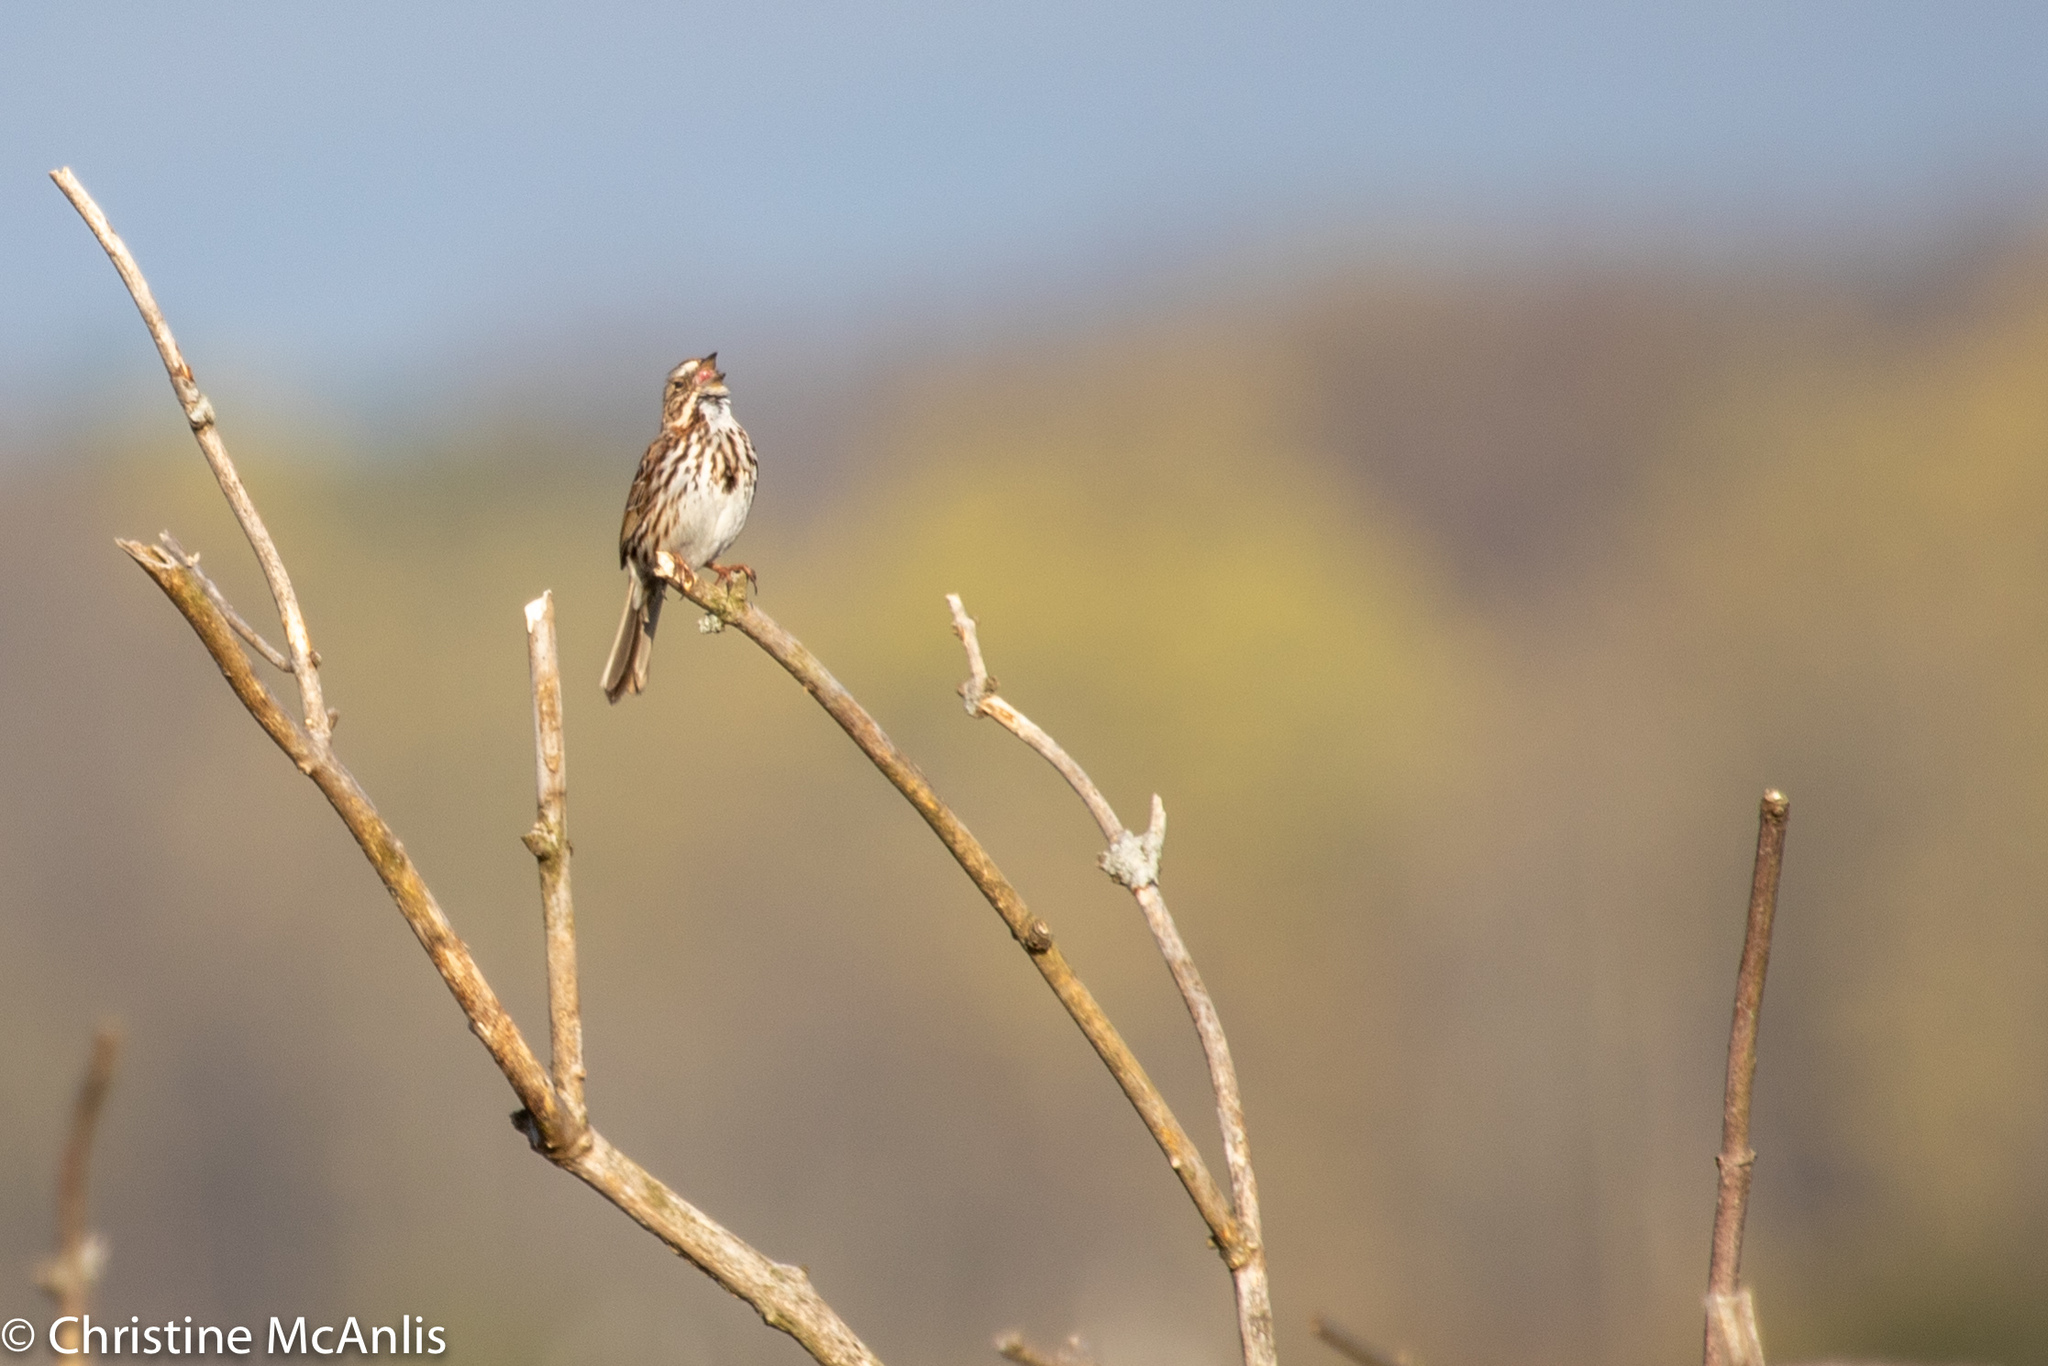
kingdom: Animalia
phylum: Chordata
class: Aves
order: Passeriformes
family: Passerellidae
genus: Melospiza
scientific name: Melospiza melodia
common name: Song sparrow
